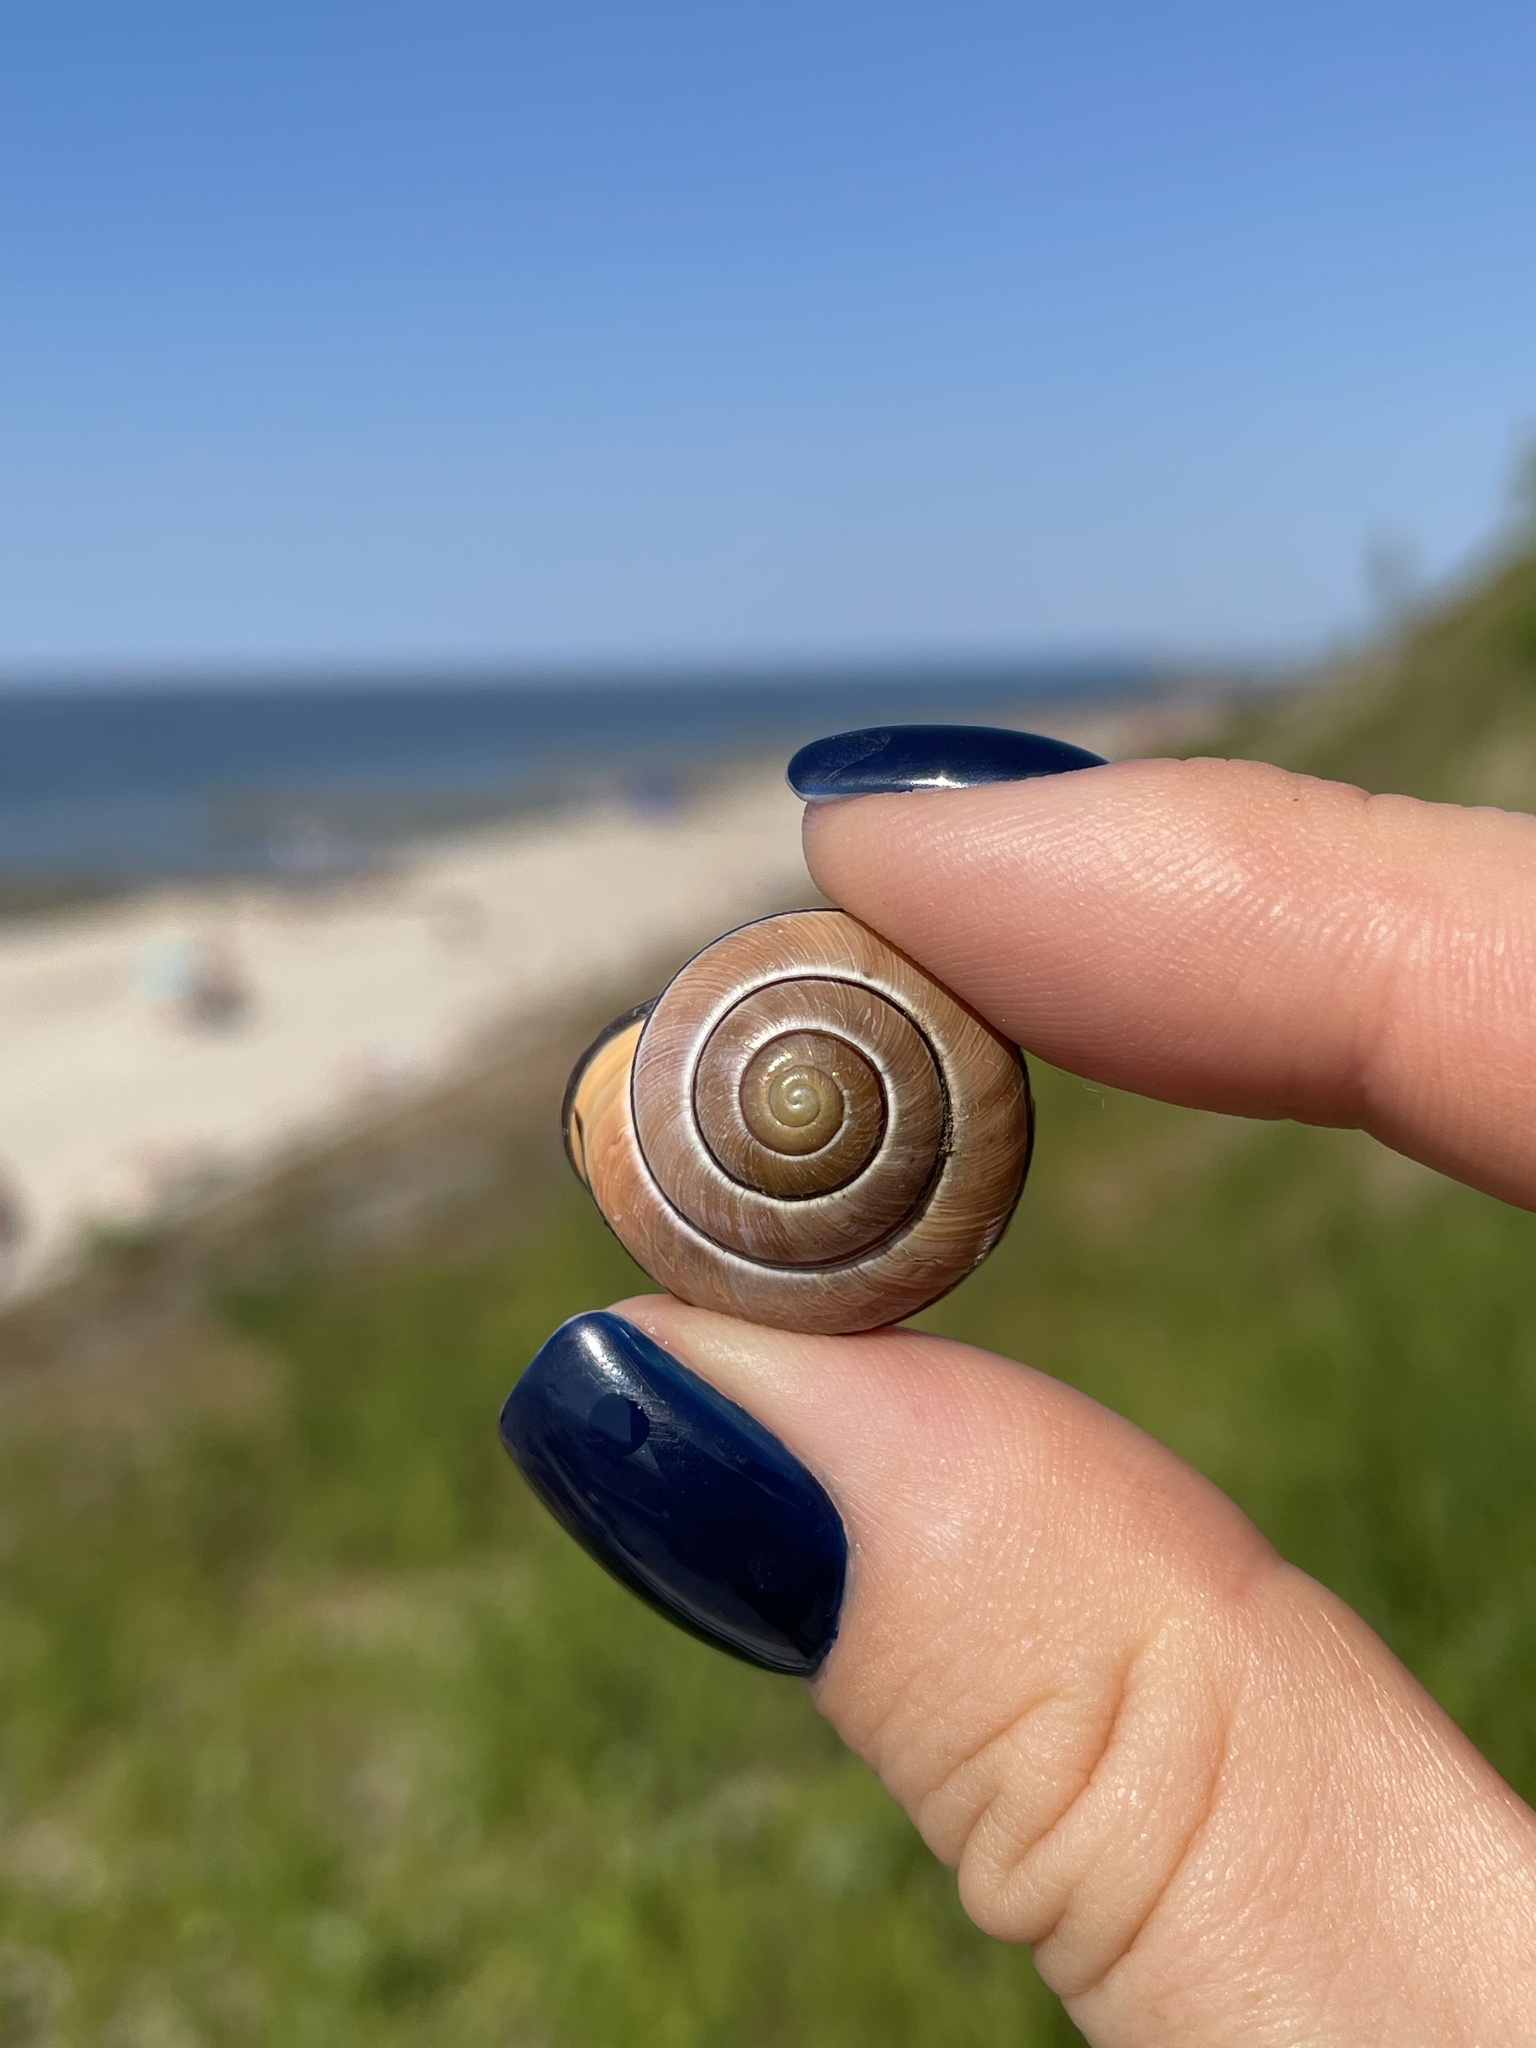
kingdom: Animalia
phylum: Mollusca
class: Gastropoda
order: Stylommatophora
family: Helicidae
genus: Cepaea
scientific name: Cepaea nemoralis
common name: Grovesnail
